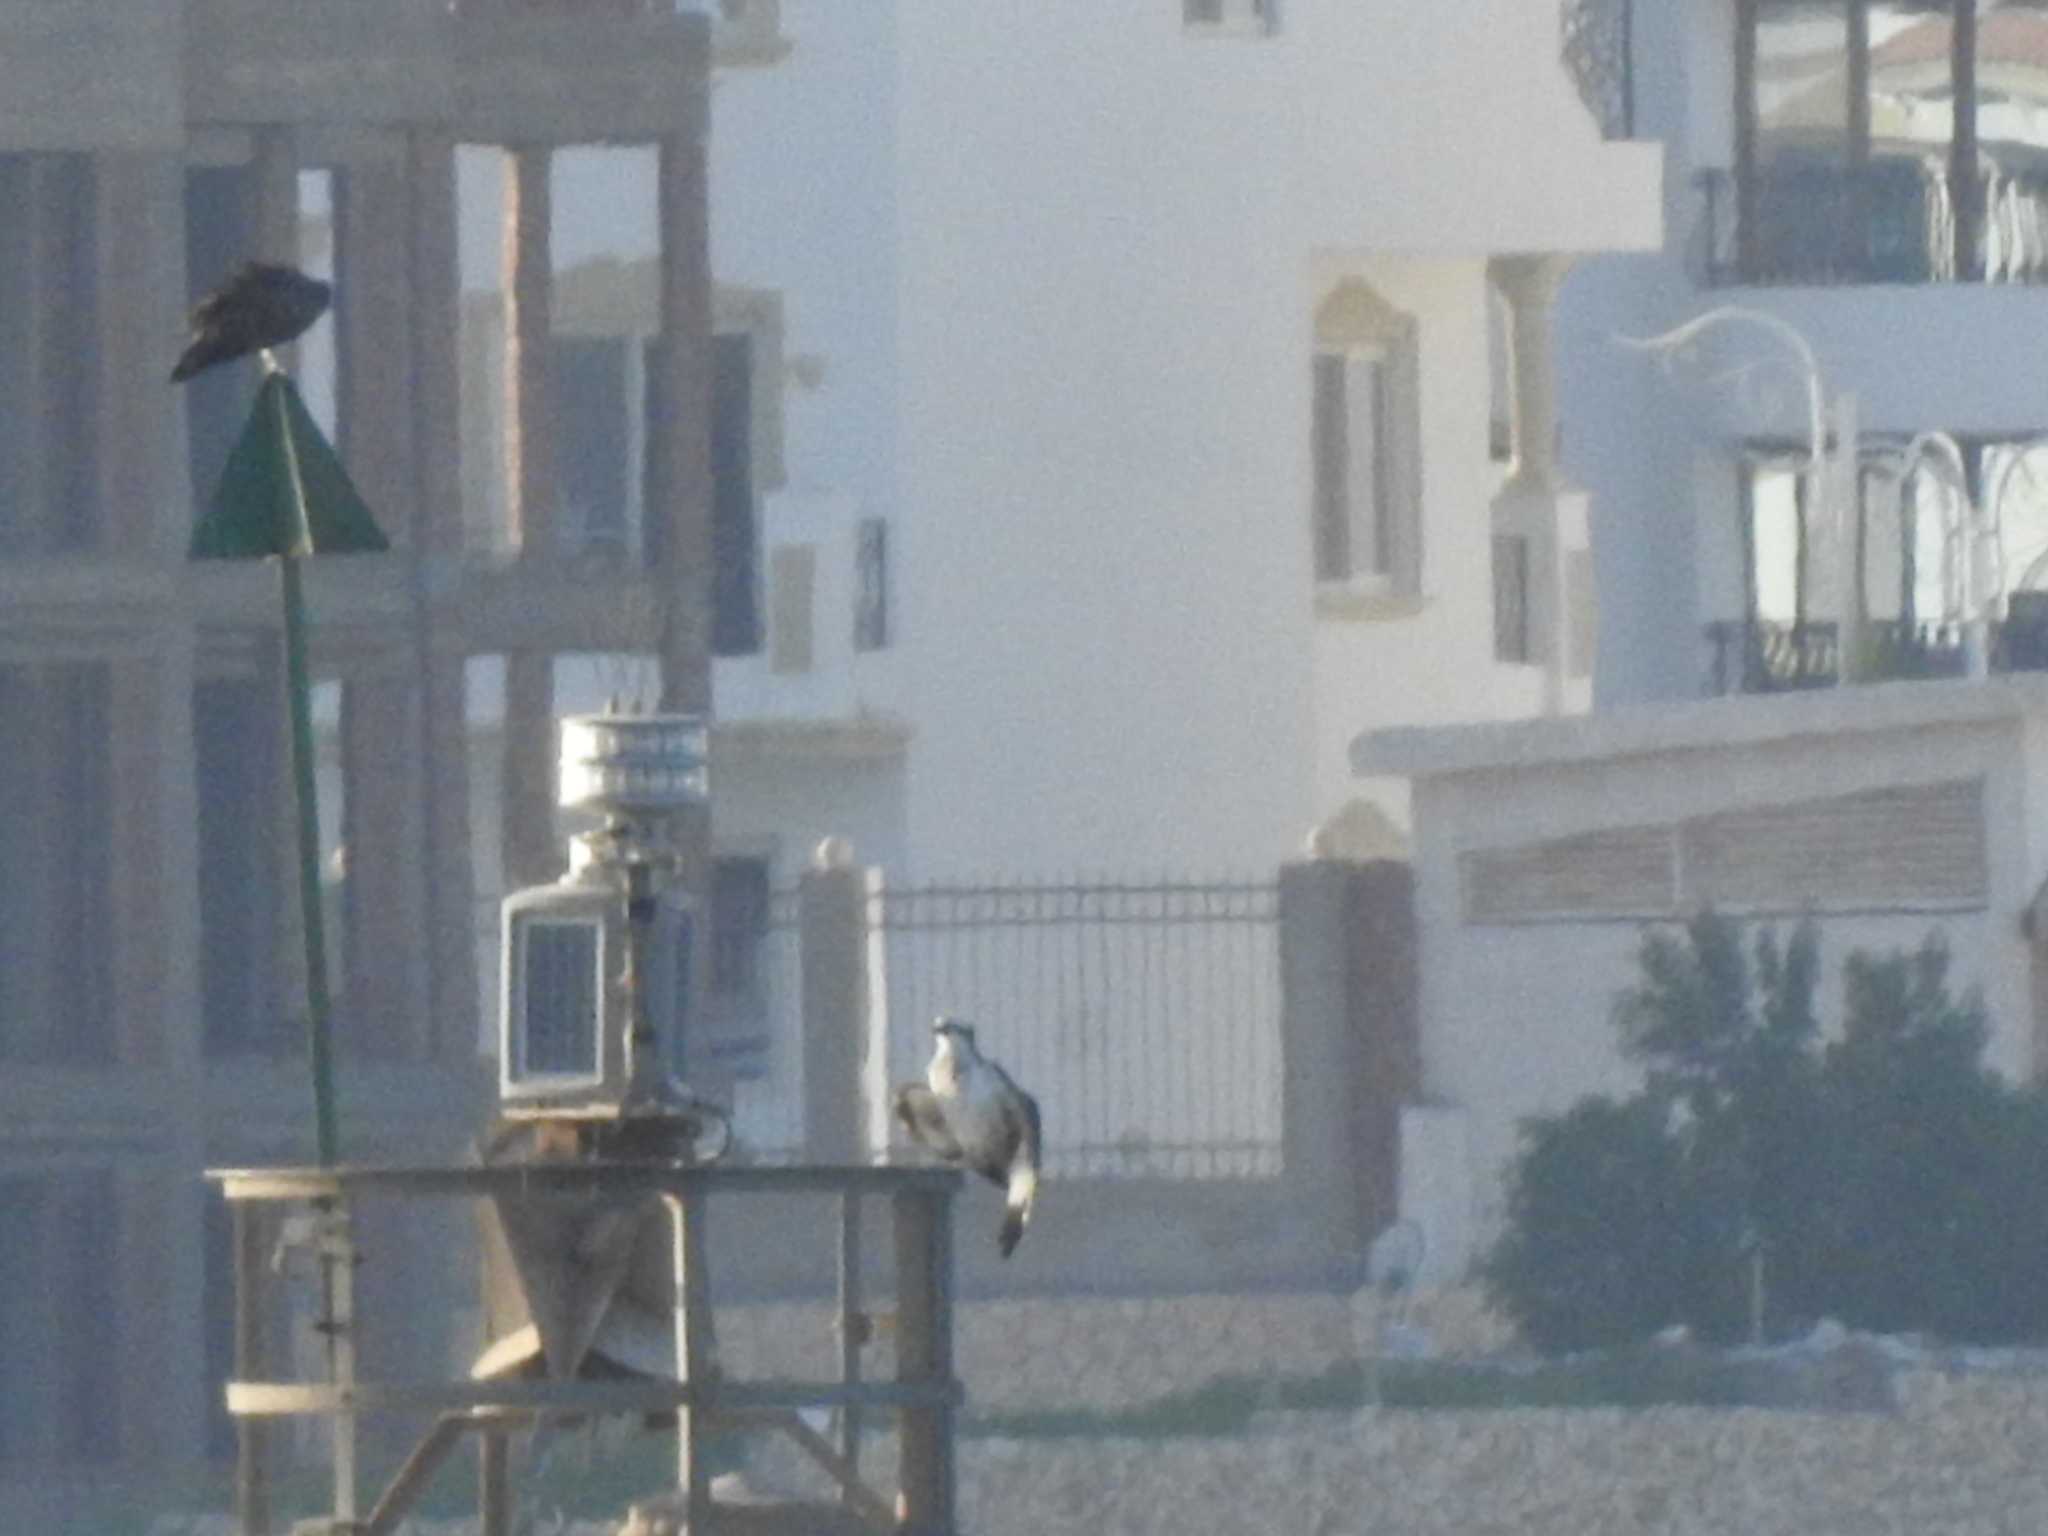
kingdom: Animalia
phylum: Chordata
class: Aves
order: Accipitriformes
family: Pandionidae
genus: Pandion
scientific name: Pandion haliaetus
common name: Osprey
